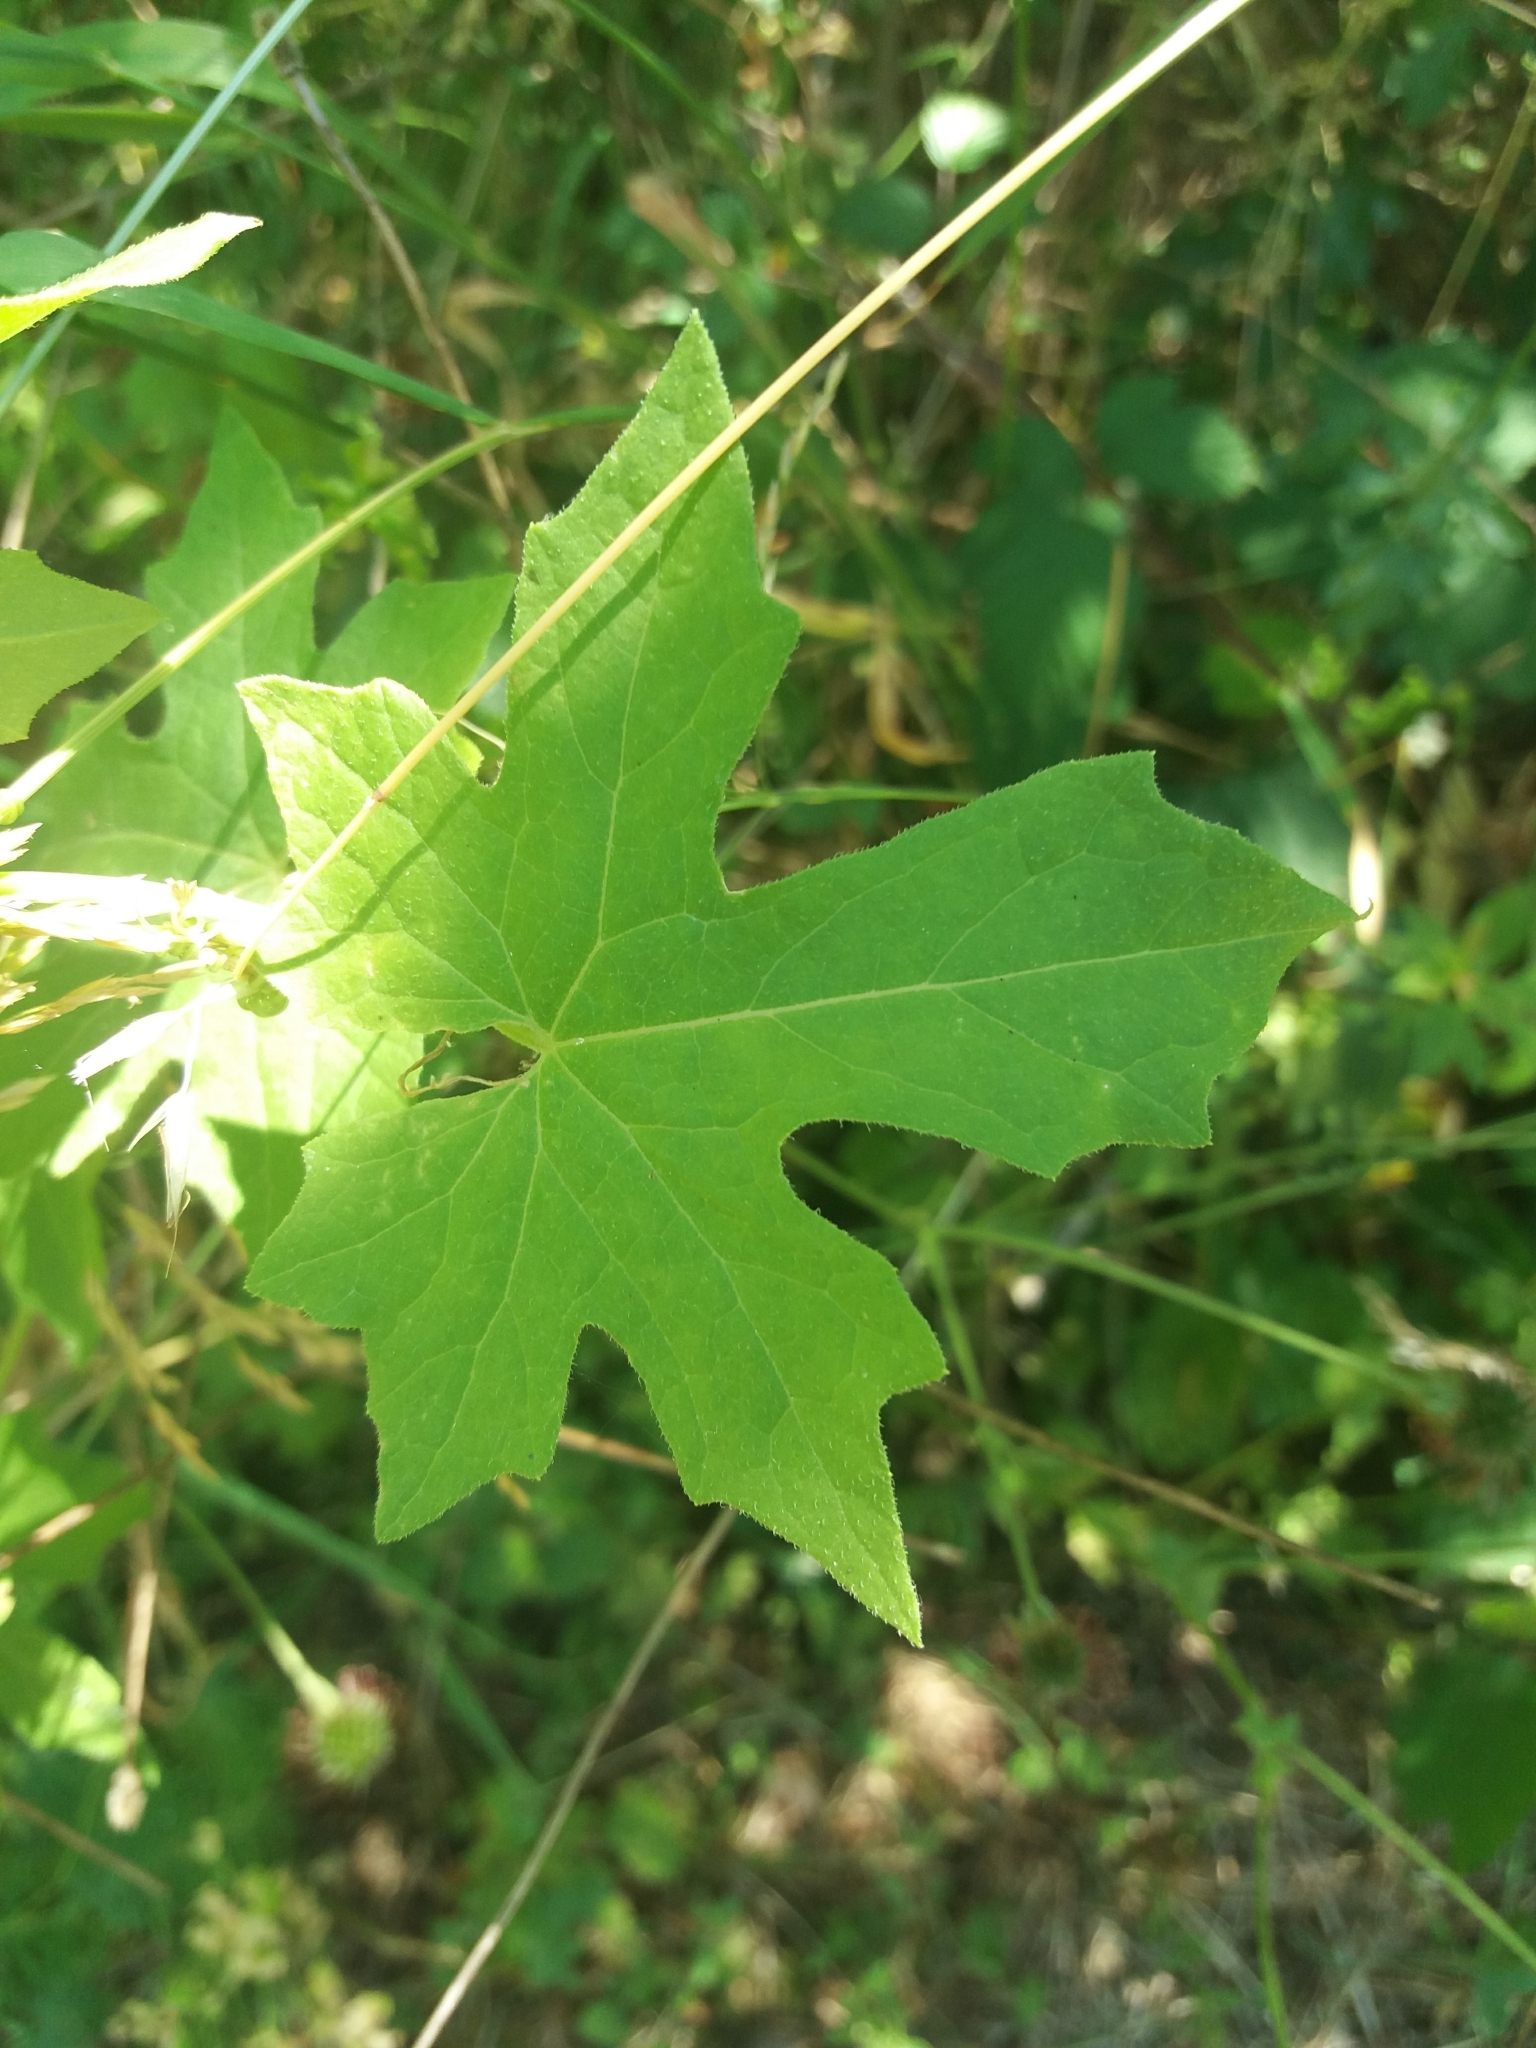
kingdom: Plantae
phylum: Tracheophyta
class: Magnoliopsida
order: Cucurbitales
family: Cucurbitaceae
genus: Bryonia
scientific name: Bryonia dioica
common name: White bryony
